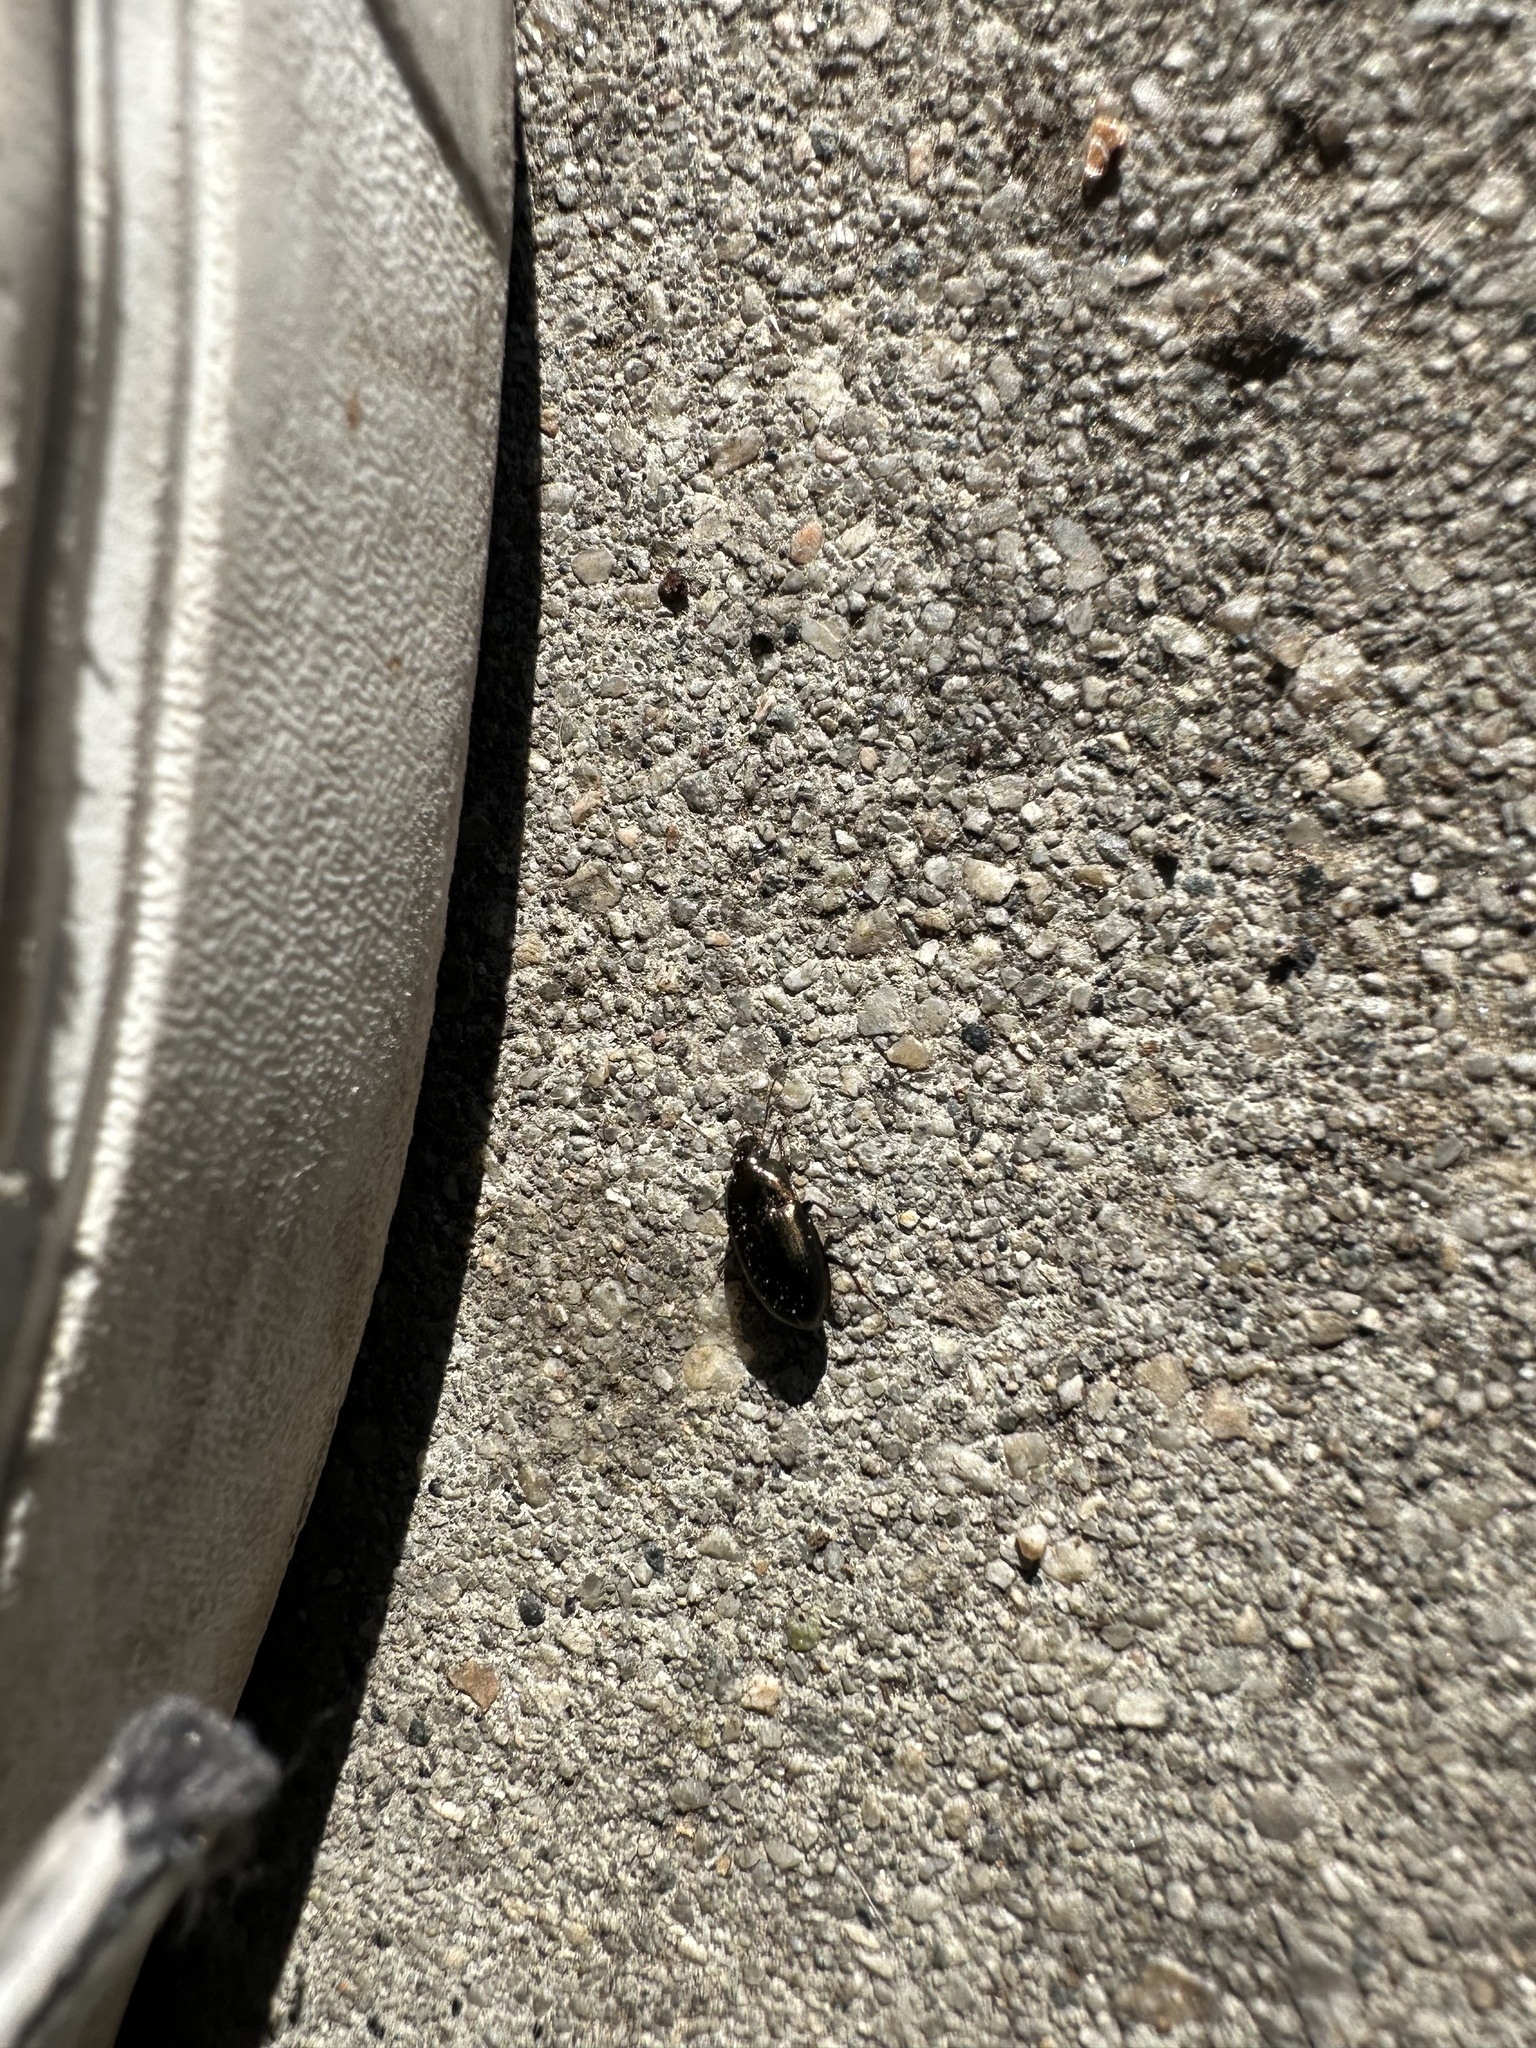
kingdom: Animalia
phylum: Arthropoda
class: Insecta
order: Coleoptera
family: Carabidae
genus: Amara
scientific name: Amara aenea
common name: Common sun beetle
